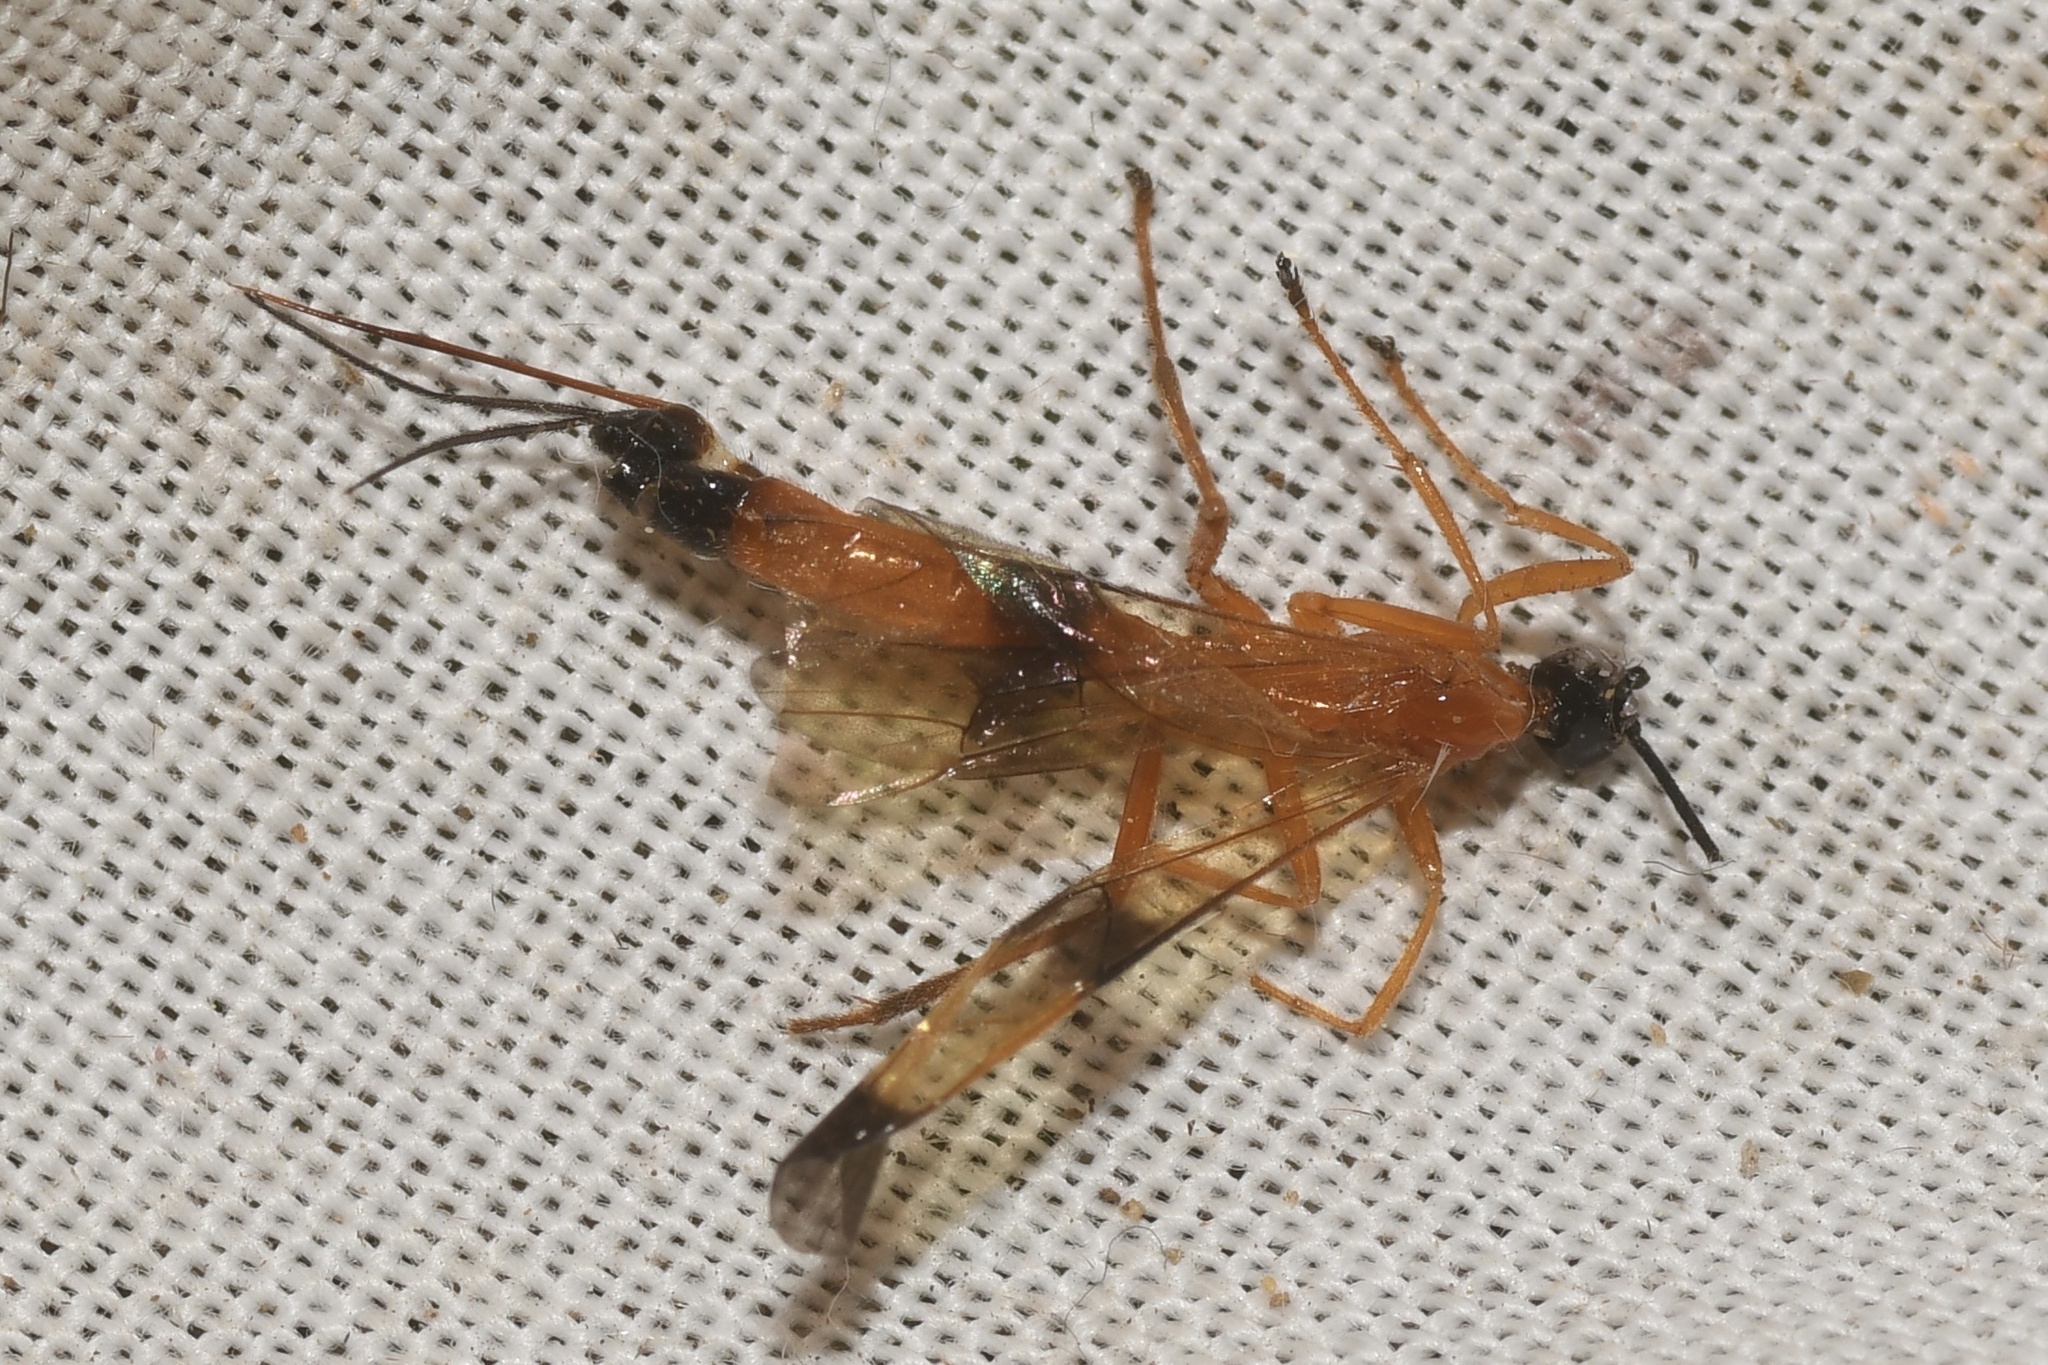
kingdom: Animalia
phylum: Arthropoda
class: Insecta
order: Hymenoptera
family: Ichneumonidae
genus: Acrotaphus
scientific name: Acrotaphus wiltii
